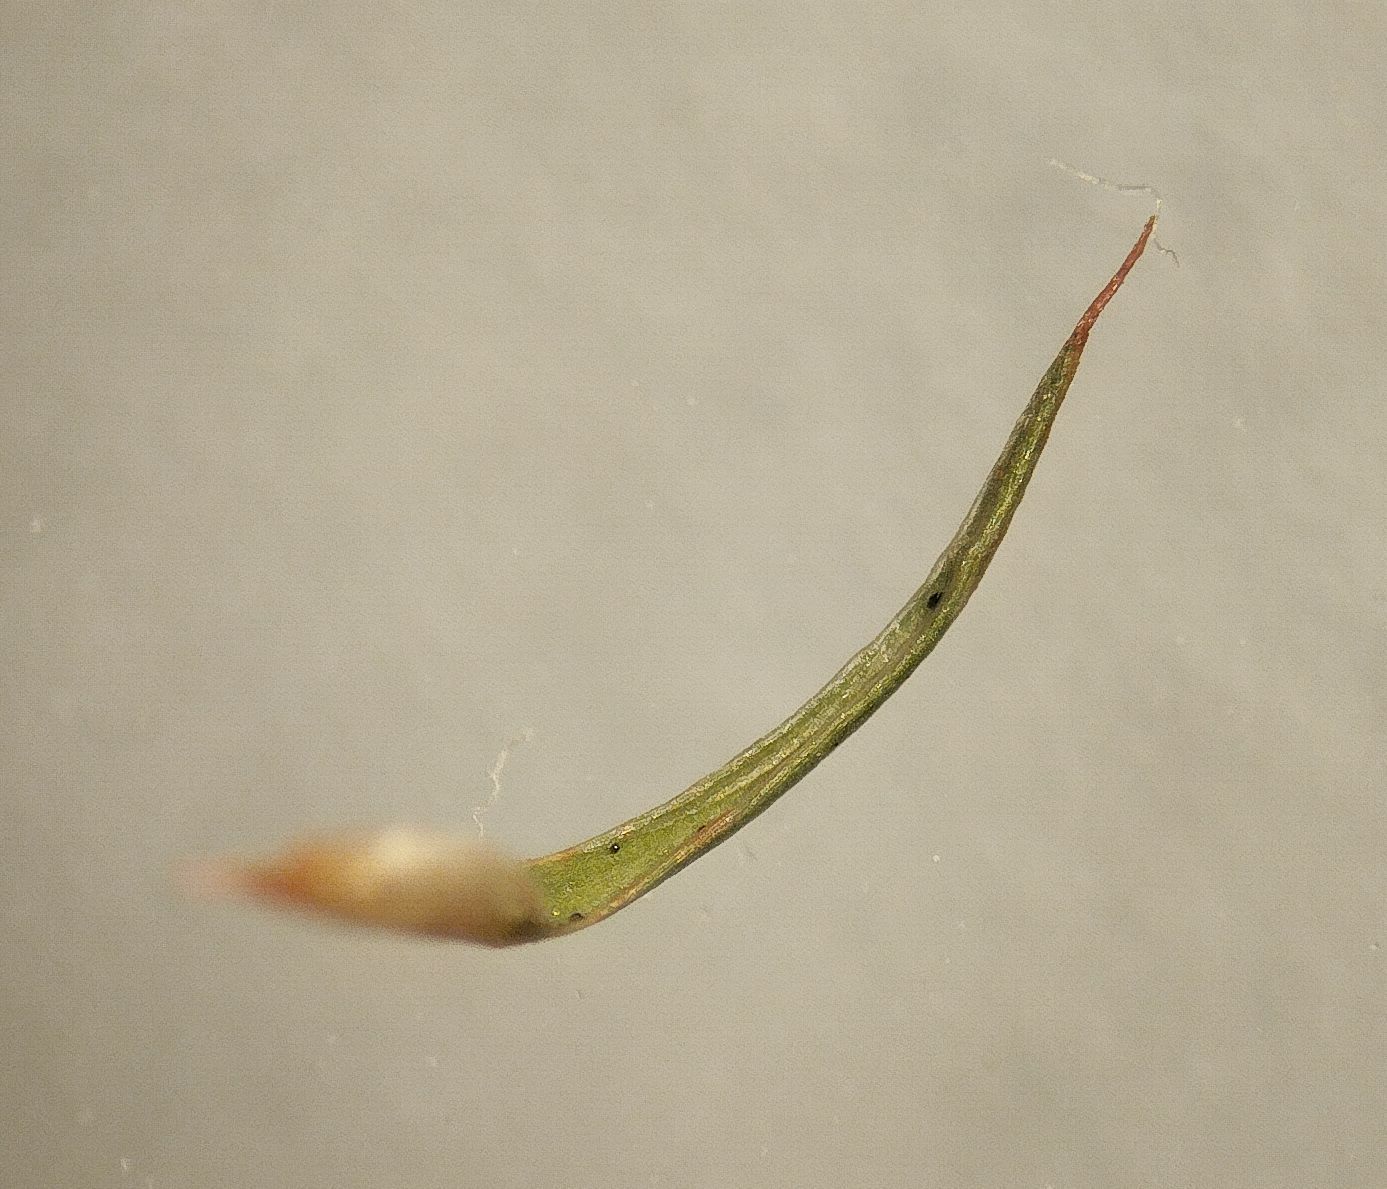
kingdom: Plantae
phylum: Bryophyta
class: Polytrichopsida
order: Polytrichales
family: Polytrichaceae
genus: Polytrichum
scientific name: Polytrichum juniperinum
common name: Juniper haircap moss
